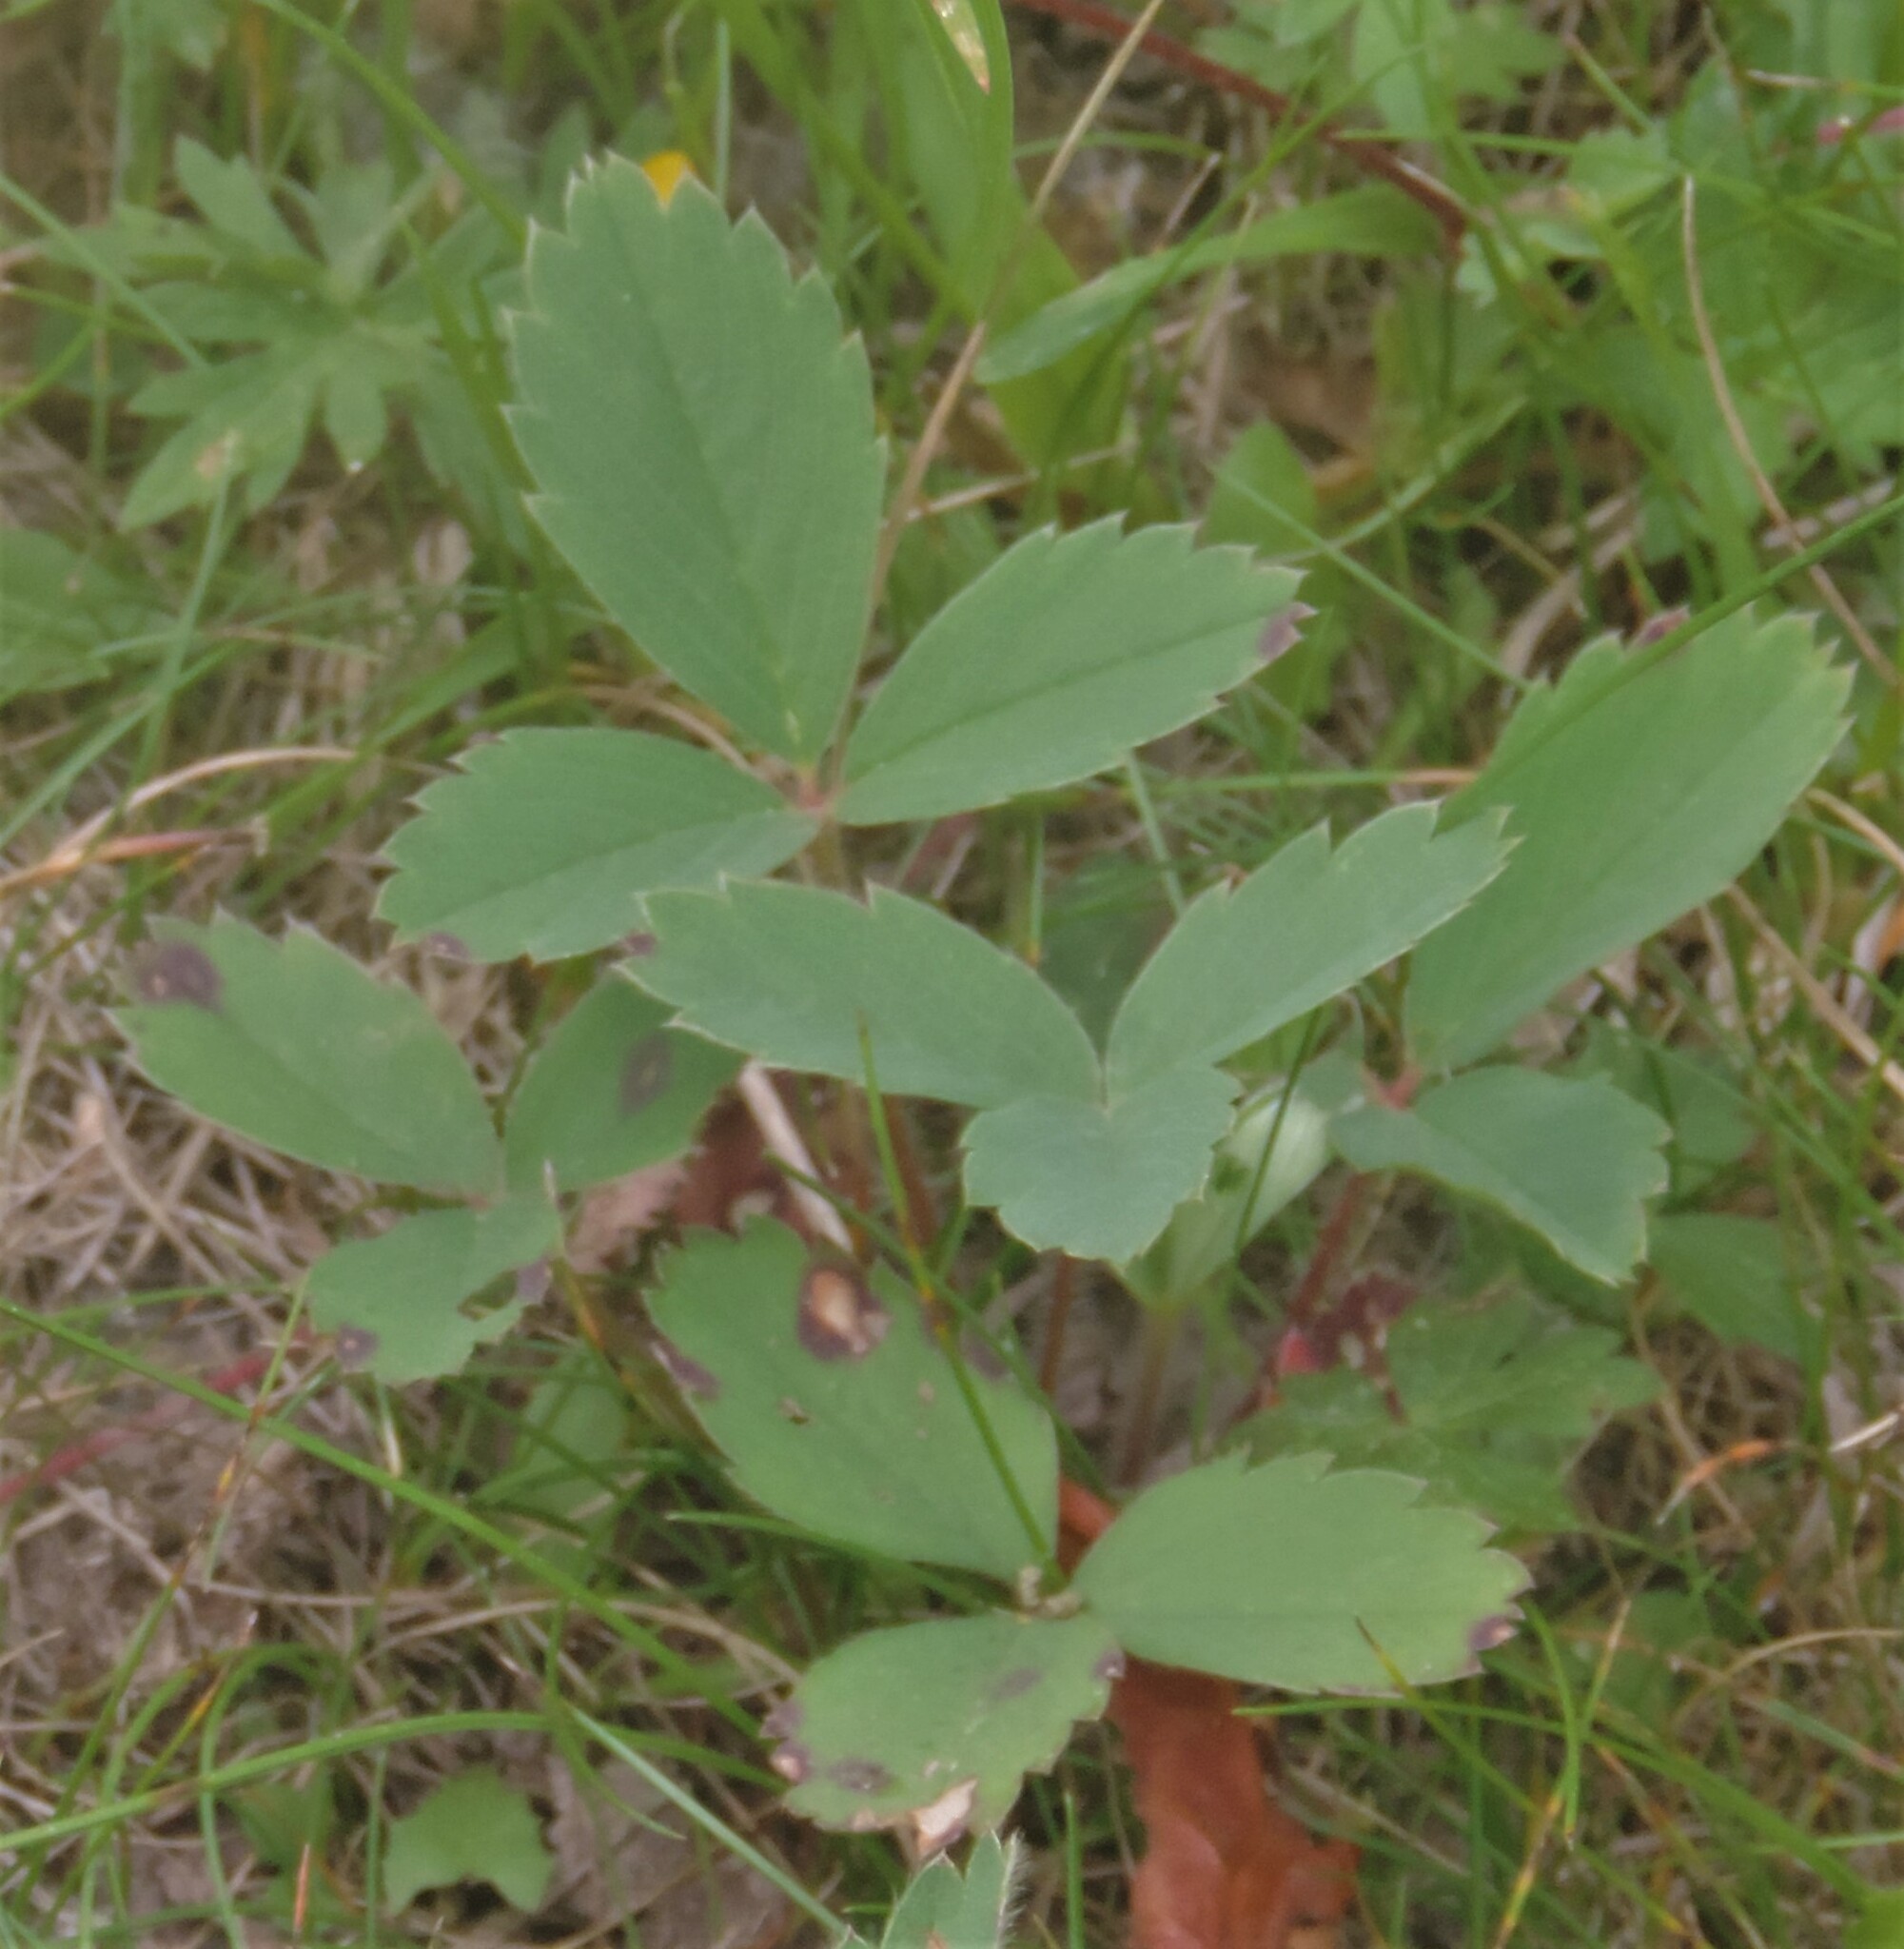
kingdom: Plantae
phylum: Tracheophyta
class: Magnoliopsida
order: Rosales
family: Rosaceae
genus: Fragaria
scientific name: Fragaria virginiana
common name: Thickleaved wild strawberry
